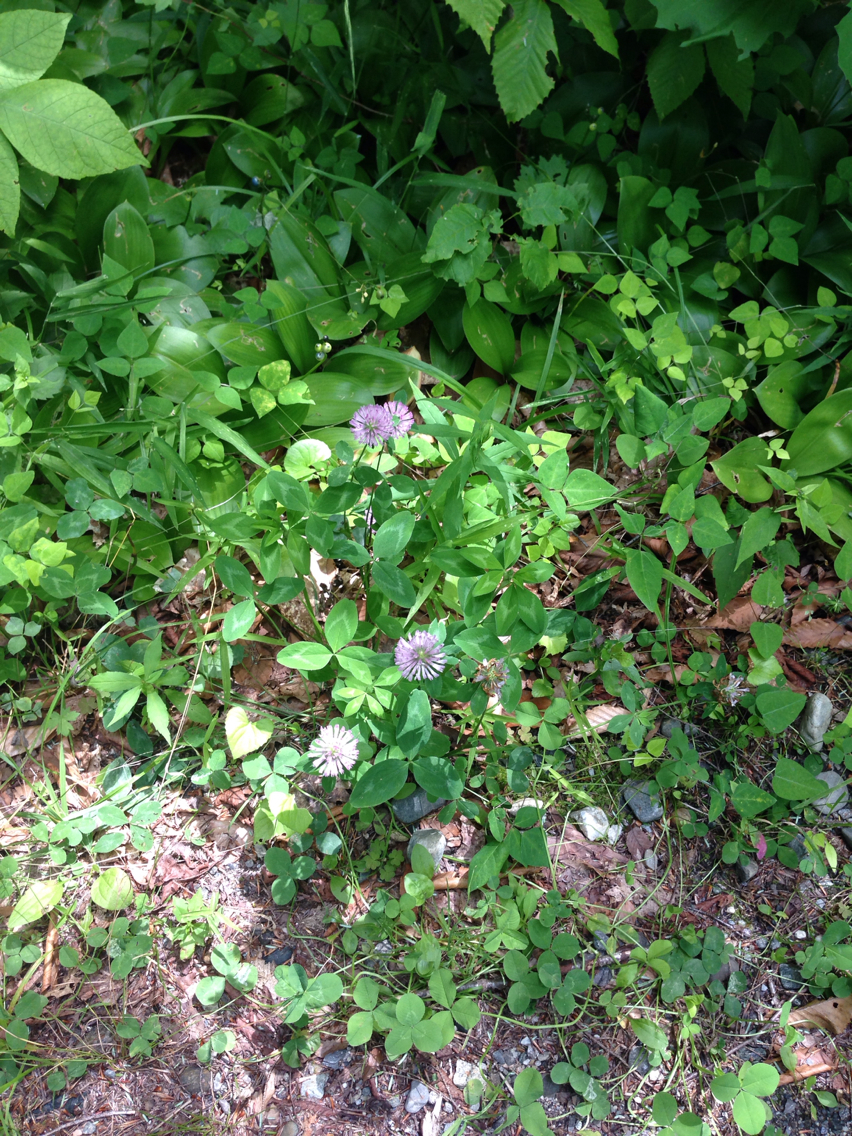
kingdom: Plantae
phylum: Tracheophyta
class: Magnoliopsida
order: Fabales
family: Fabaceae
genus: Trifolium
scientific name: Trifolium pratense
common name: Red clover
